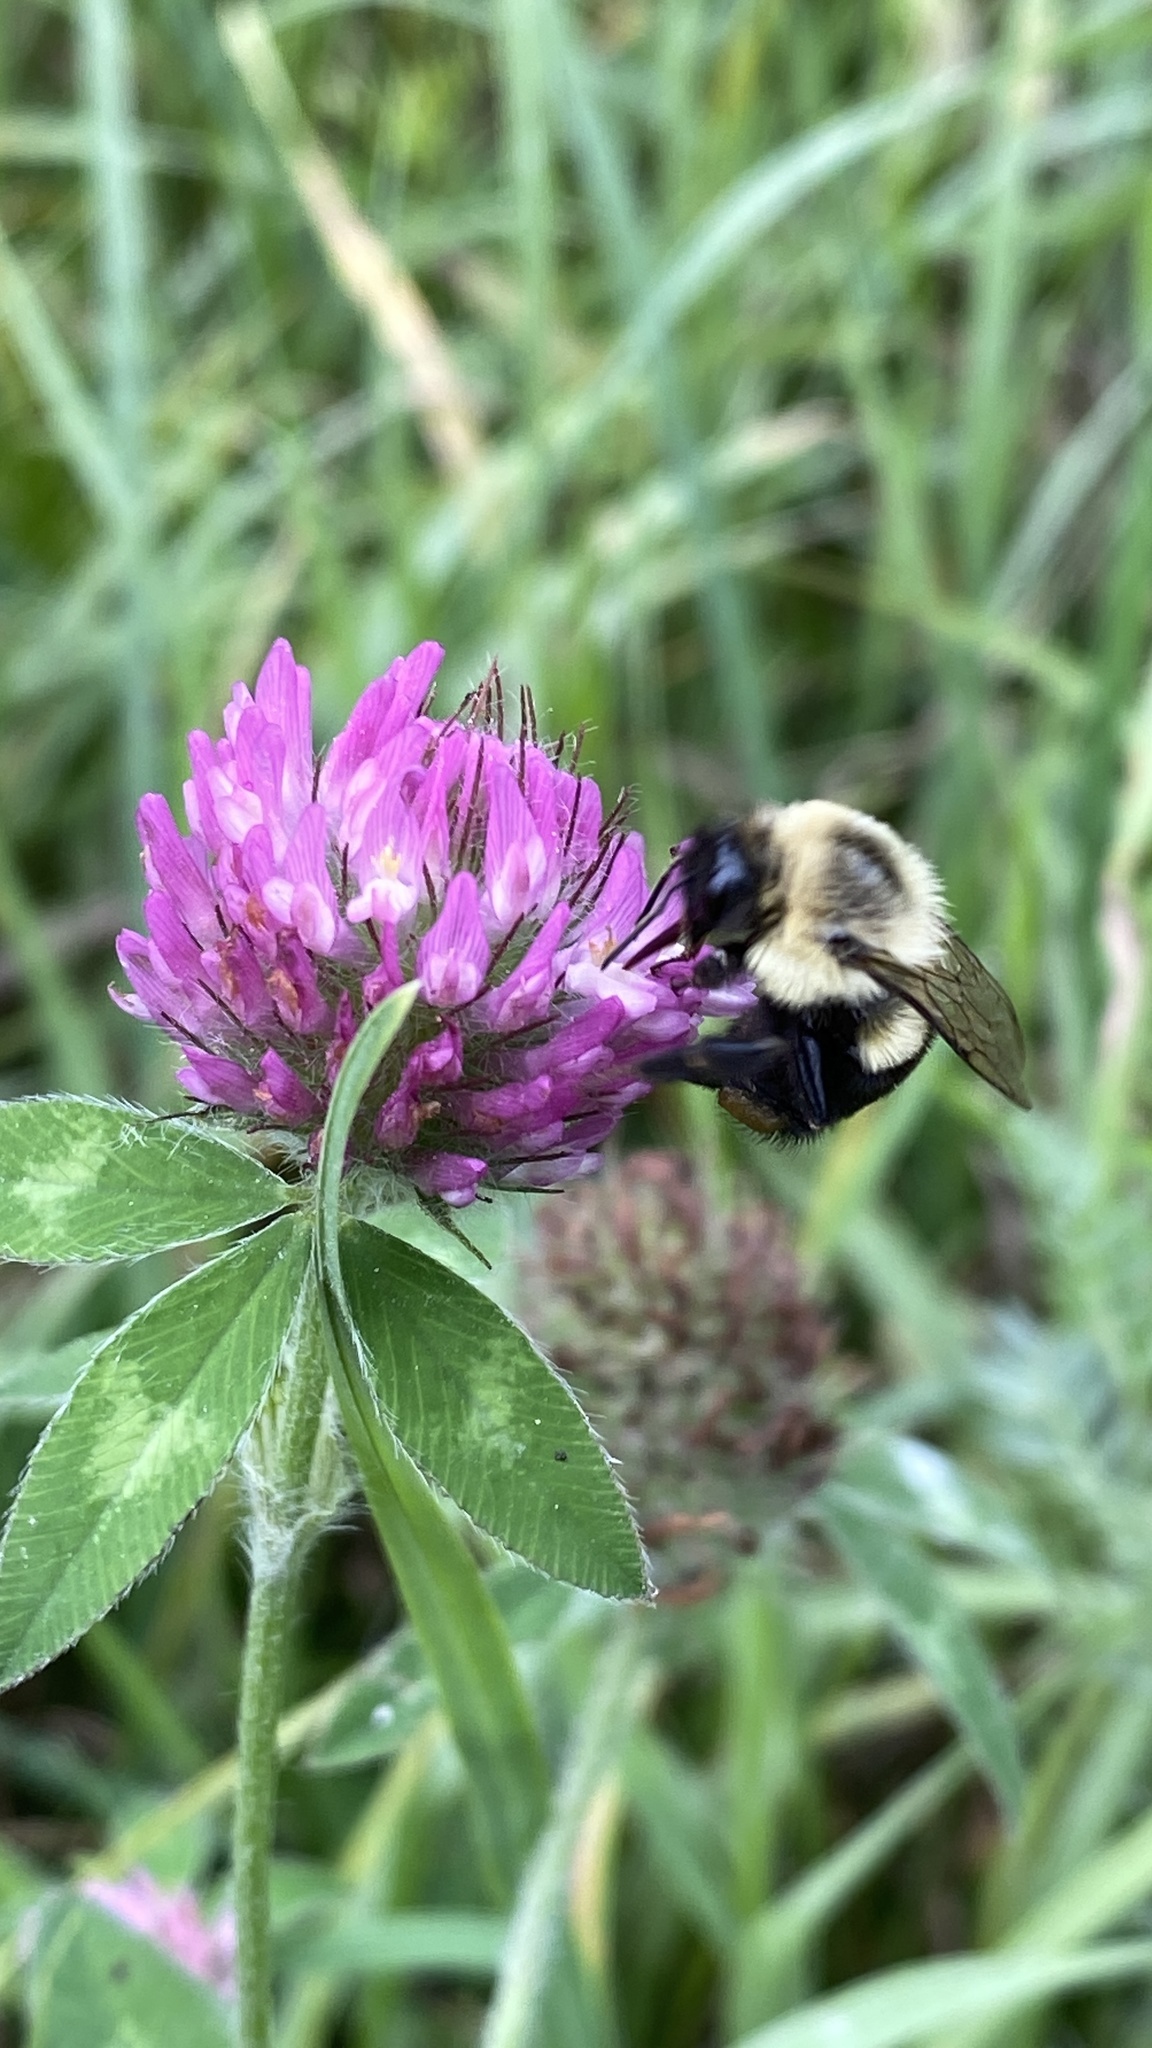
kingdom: Animalia
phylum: Arthropoda
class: Insecta
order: Hymenoptera
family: Apidae
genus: Bombus
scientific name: Bombus impatiens
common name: Common eastern bumble bee
